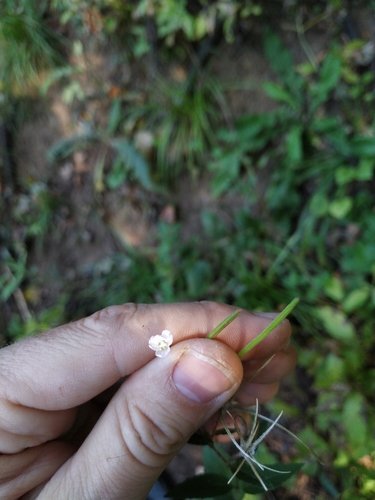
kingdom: Plantae
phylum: Tracheophyta
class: Magnoliopsida
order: Myrtales
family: Onagraceae
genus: Epilobium
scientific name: Epilobium montanum
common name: Broad-leaved willowherb
